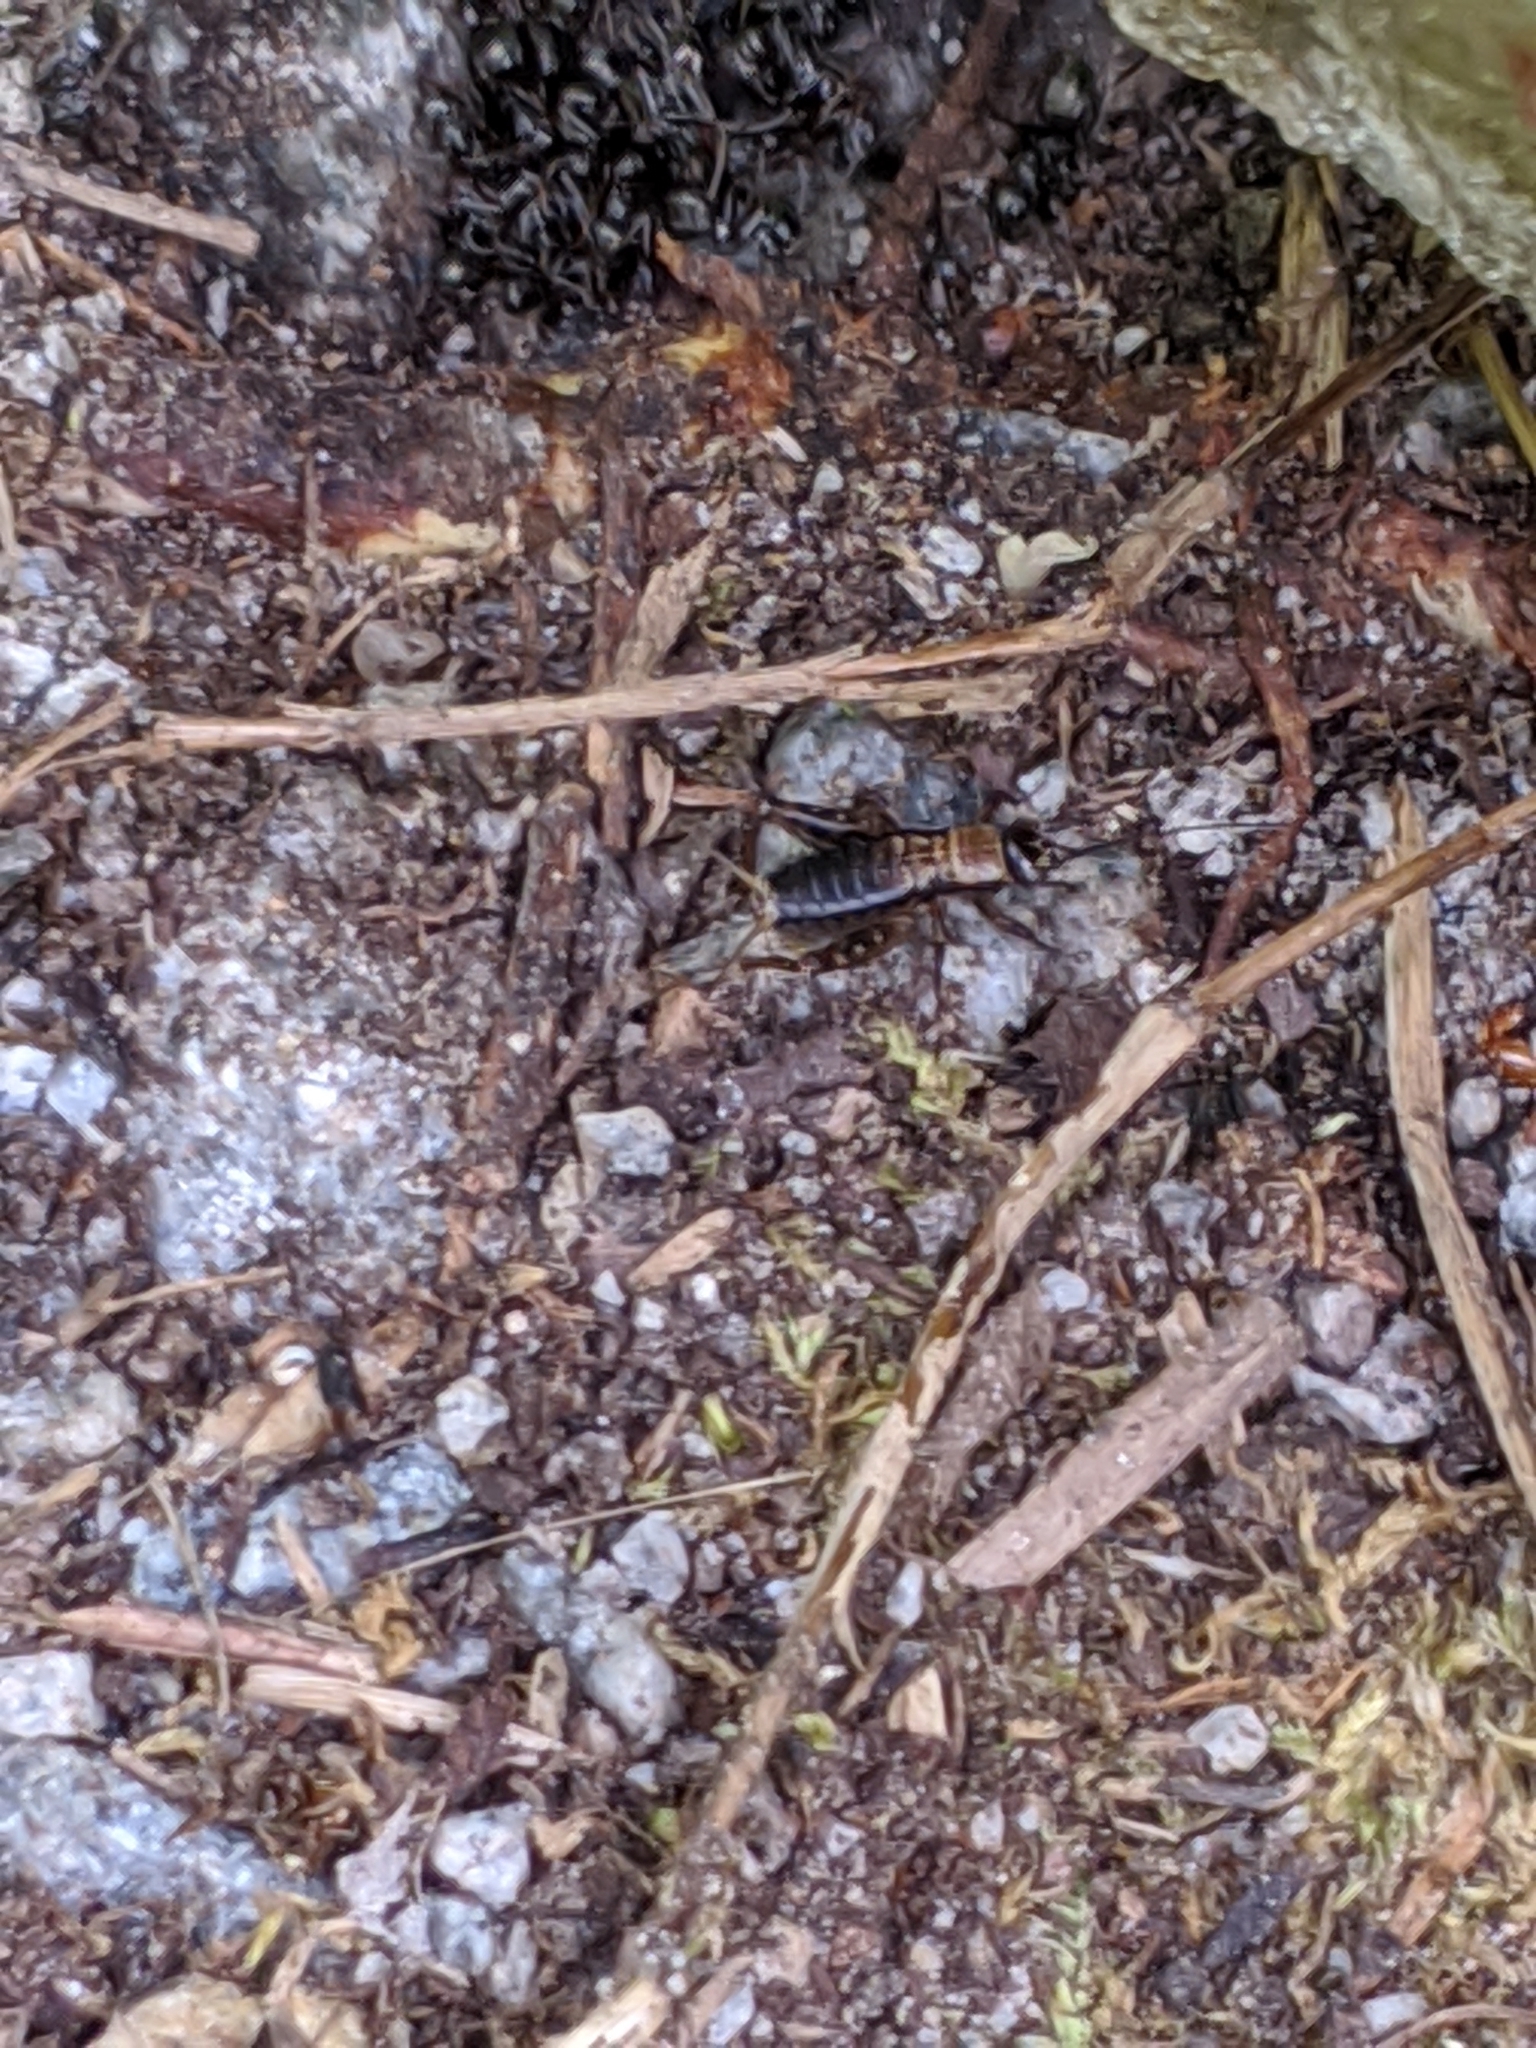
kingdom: Animalia
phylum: Arthropoda
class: Insecta
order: Orthoptera
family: Trigonidiidae
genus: Nemobius
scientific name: Nemobius sylvestris
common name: Wood-cricket
